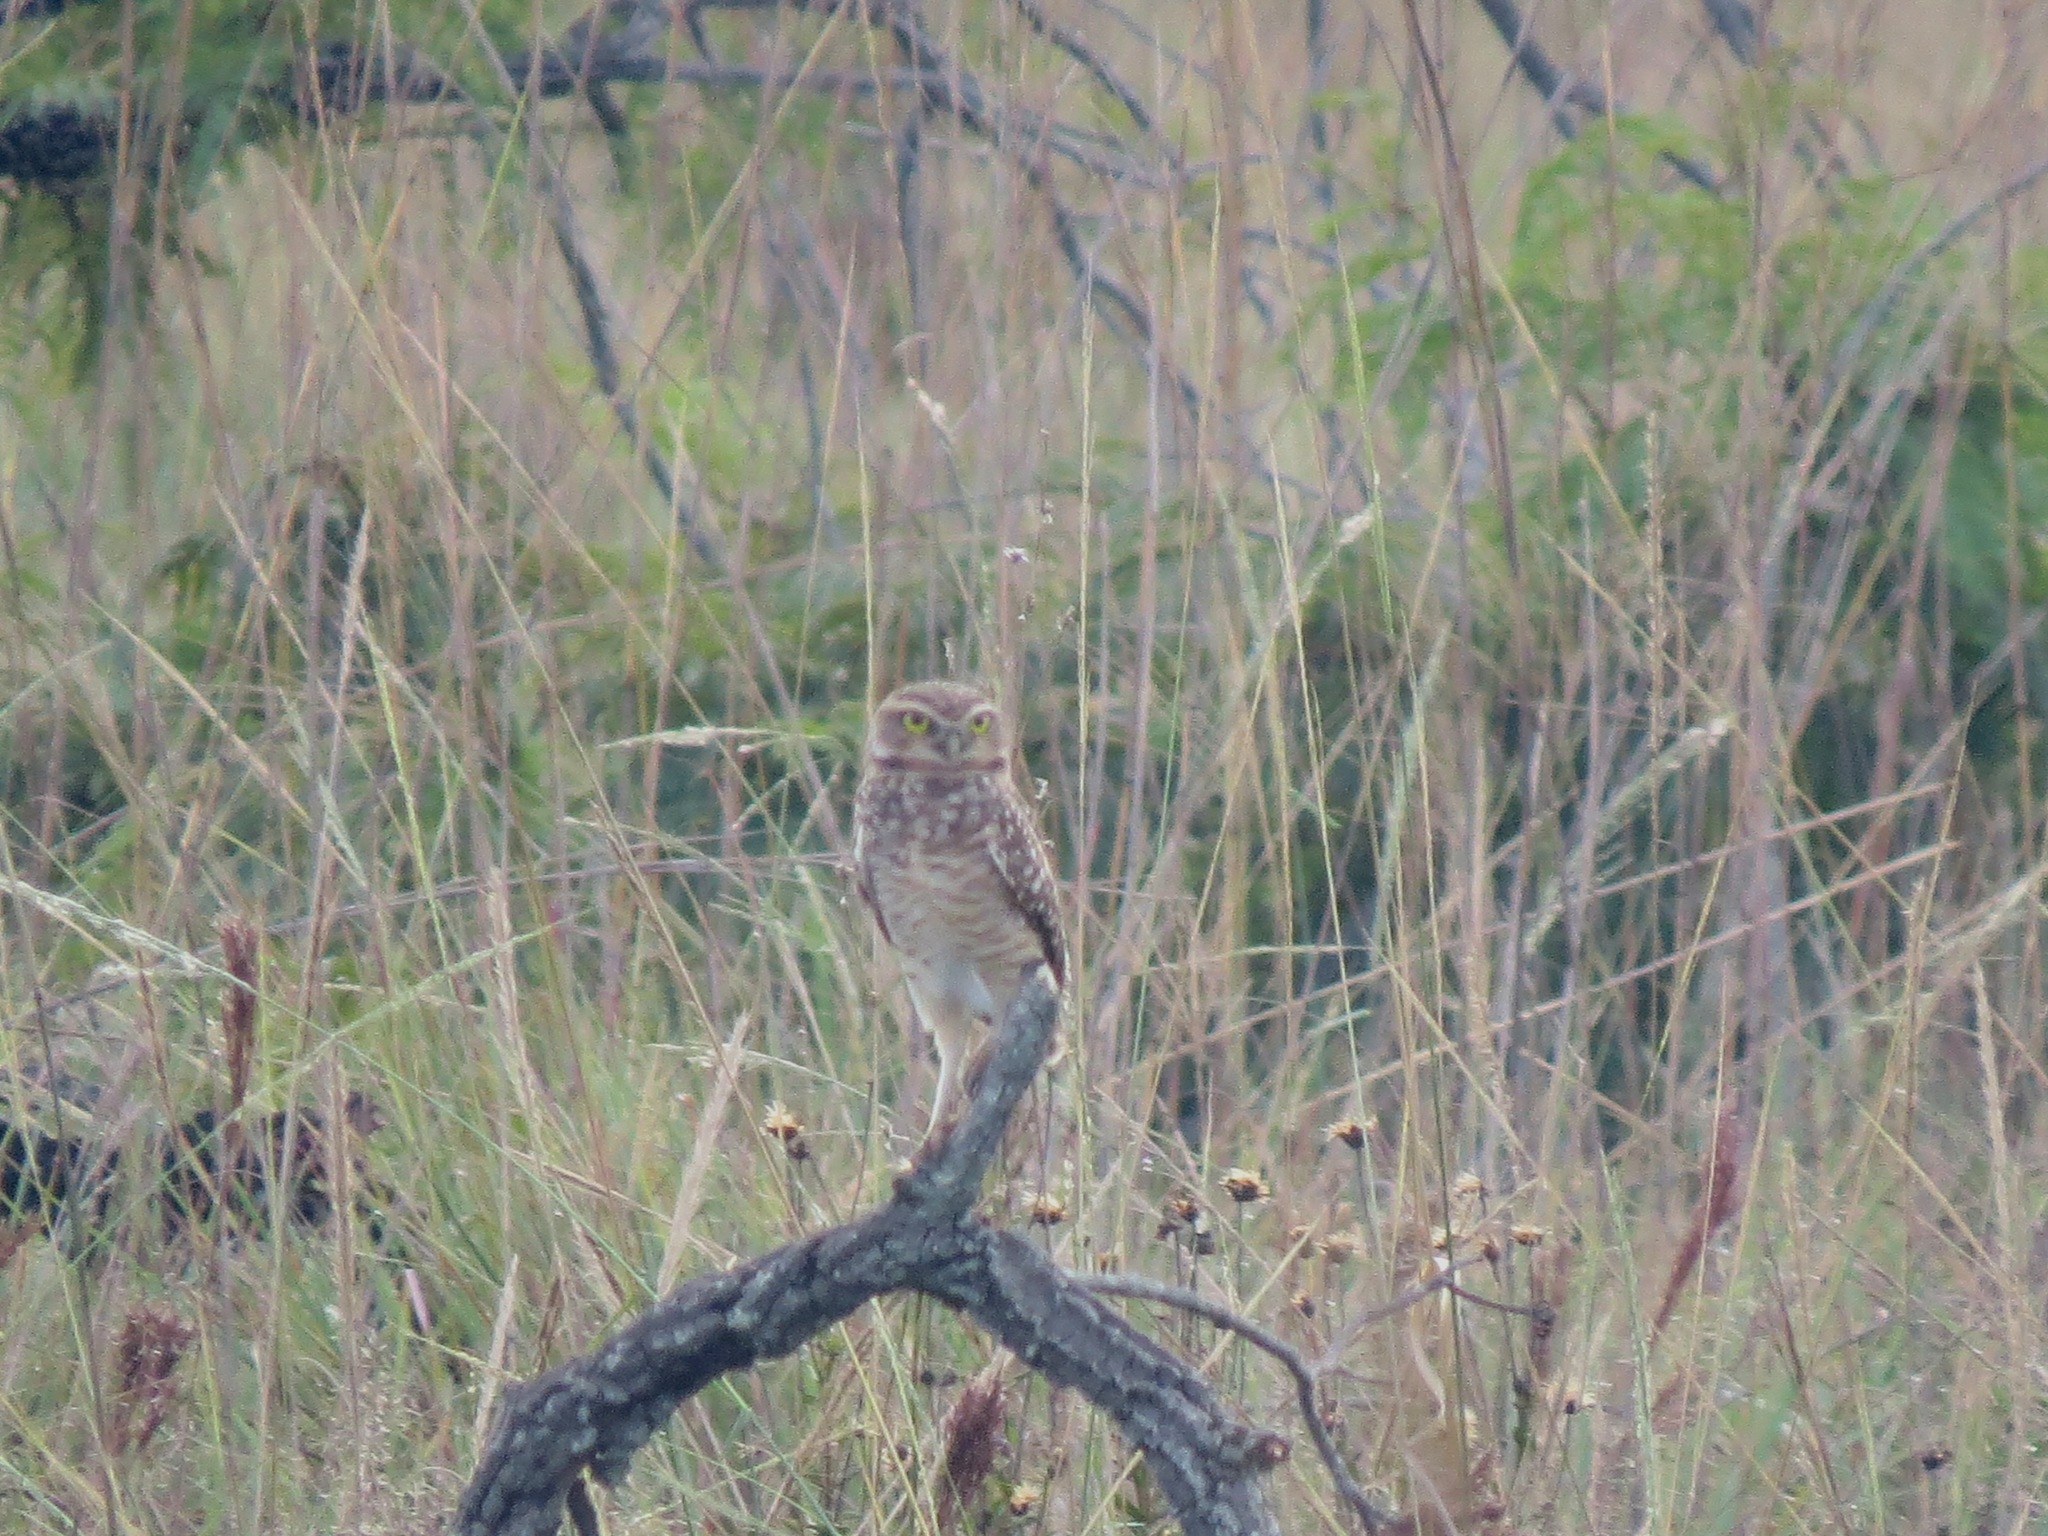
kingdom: Animalia
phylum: Chordata
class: Aves
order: Strigiformes
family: Strigidae
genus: Athene
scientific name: Athene cunicularia
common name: Burrowing owl
